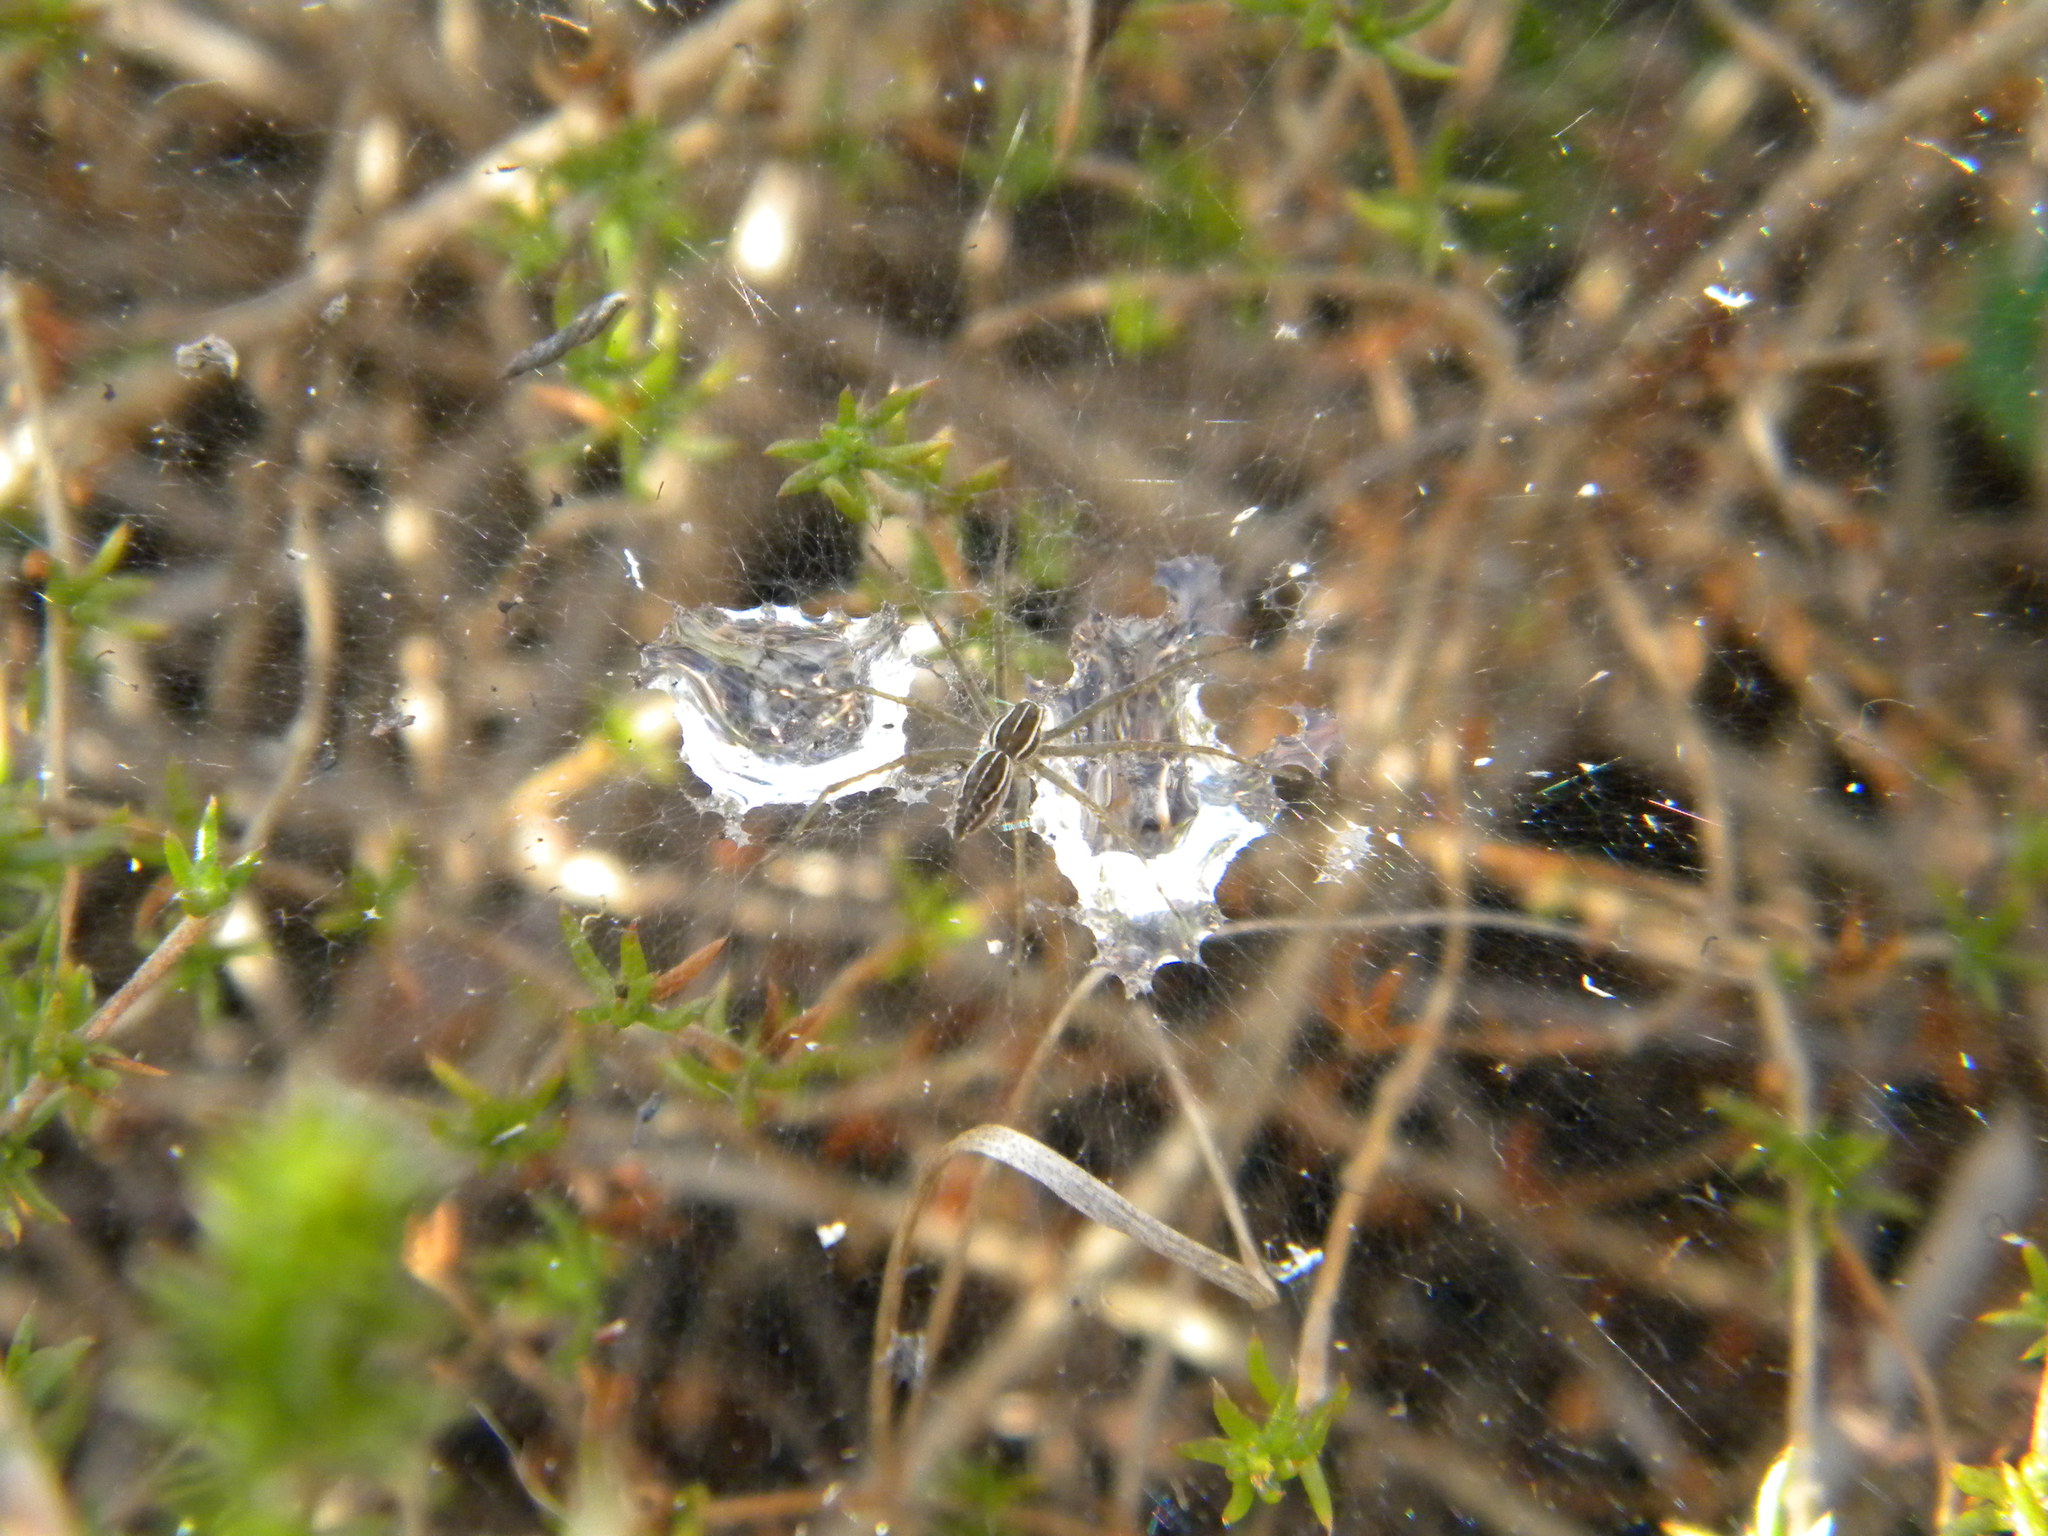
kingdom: Animalia
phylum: Arthropoda
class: Arachnida
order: Araneae
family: Pisauridae
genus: Euprosthenopsis
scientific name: Euprosthenopsis pulchella
